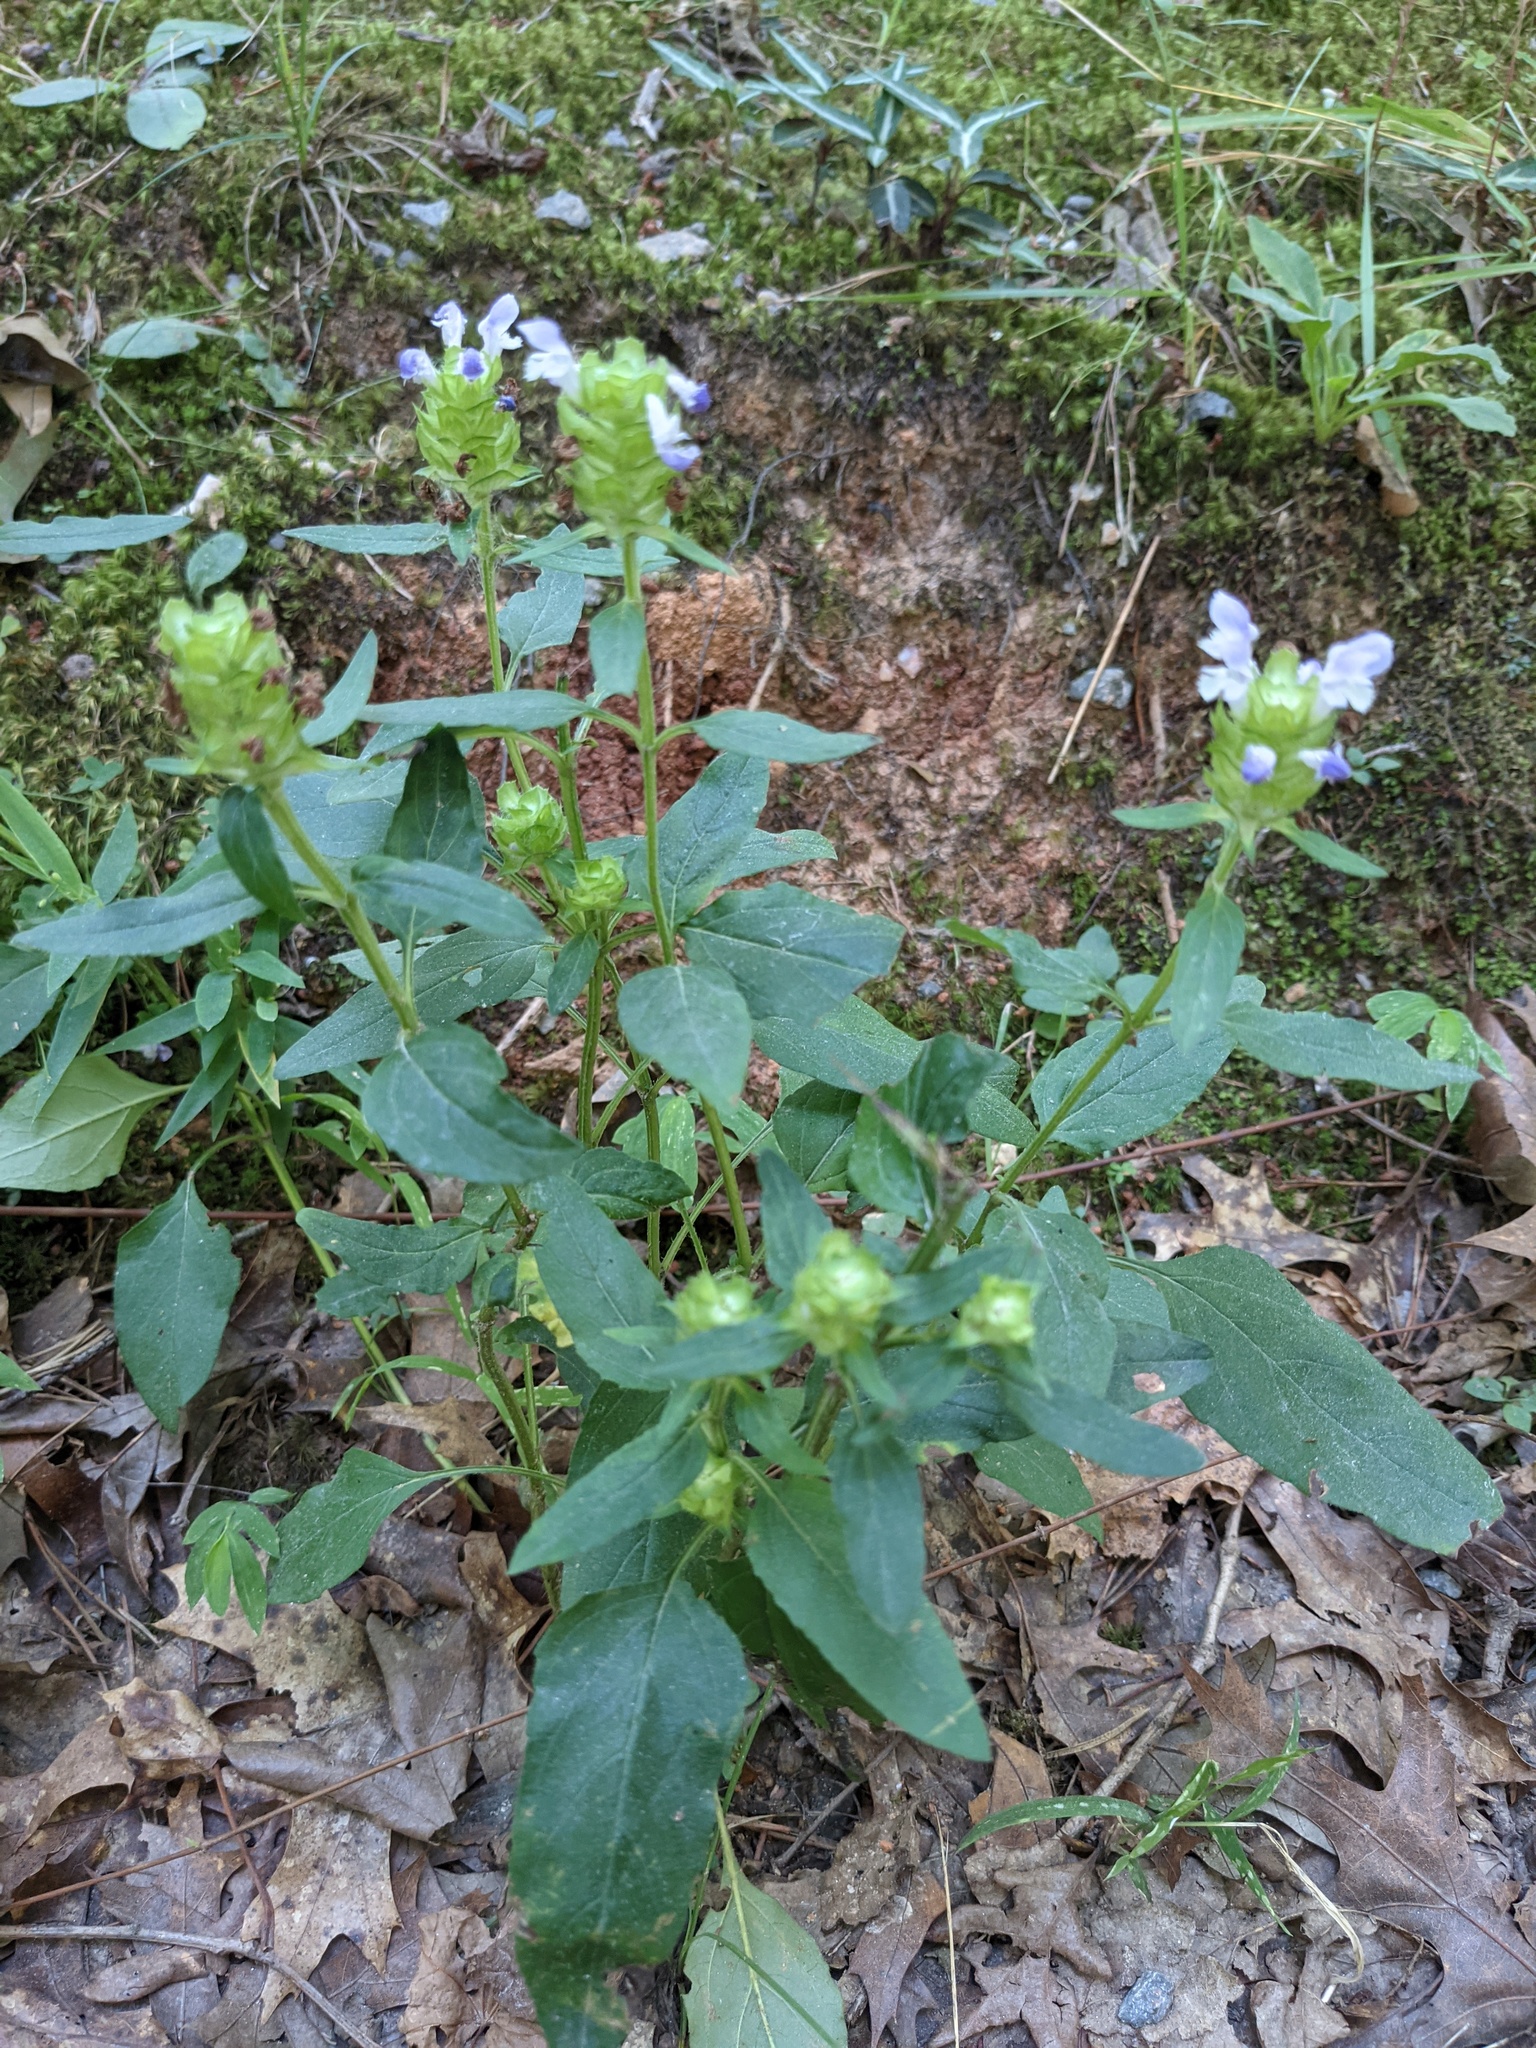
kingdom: Plantae
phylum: Tracheophyta
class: Magnoliopsida
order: Lamiales
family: Lamiaceae
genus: Prunella
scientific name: Prunella vulgaris
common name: Heal-all
